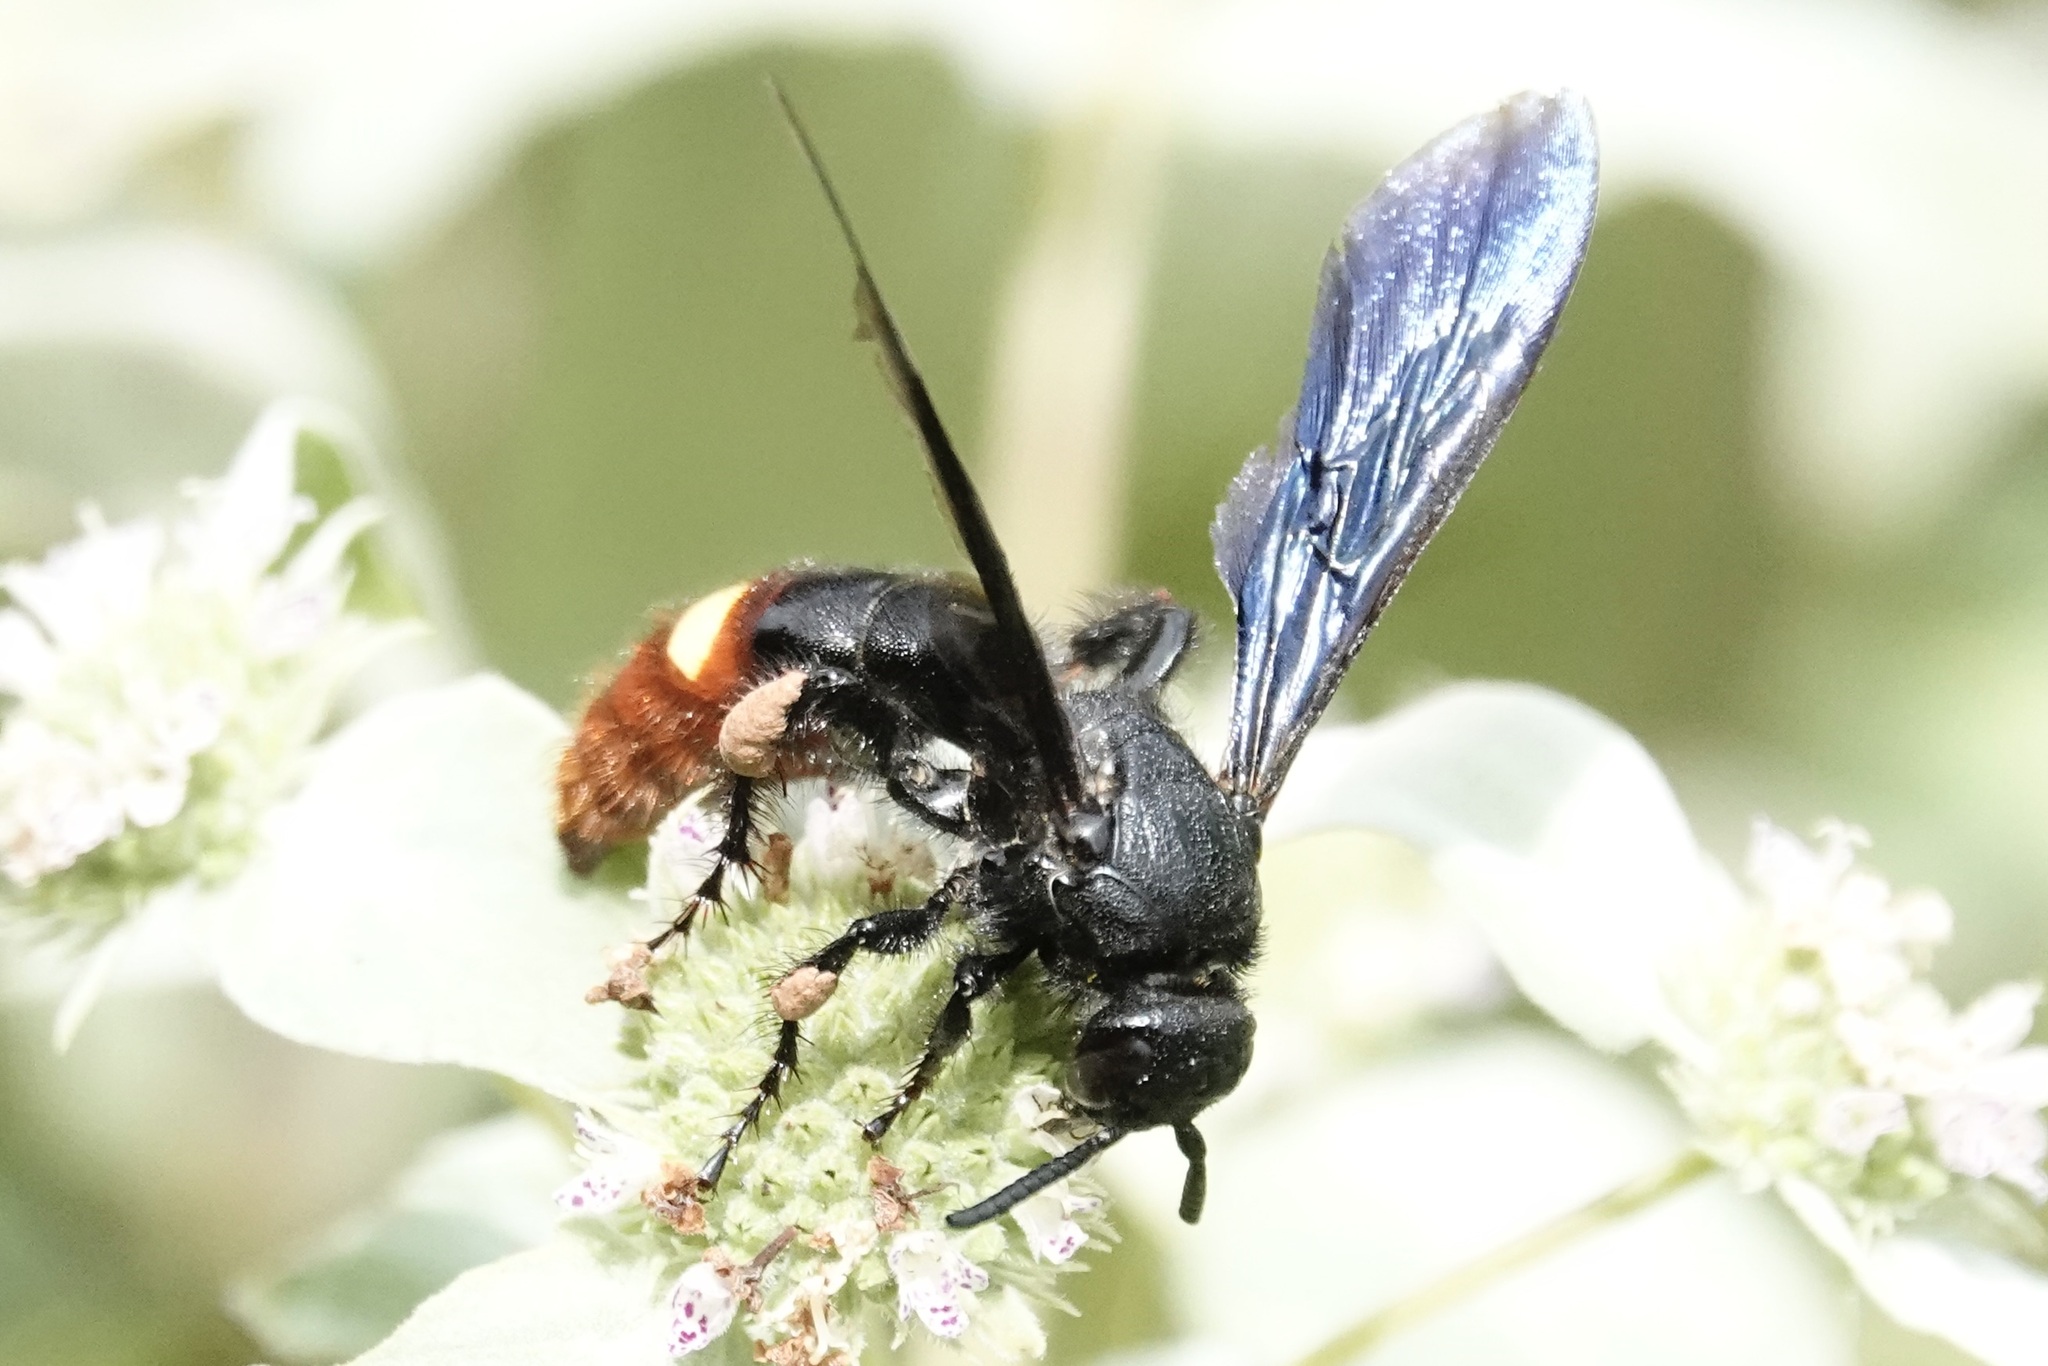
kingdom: Animalia
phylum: Arthropoda
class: Insecta
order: Hymenoptera
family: Scoliidae
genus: Scolia
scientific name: Scolia dubia
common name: Blue-winged scoliid wasp
